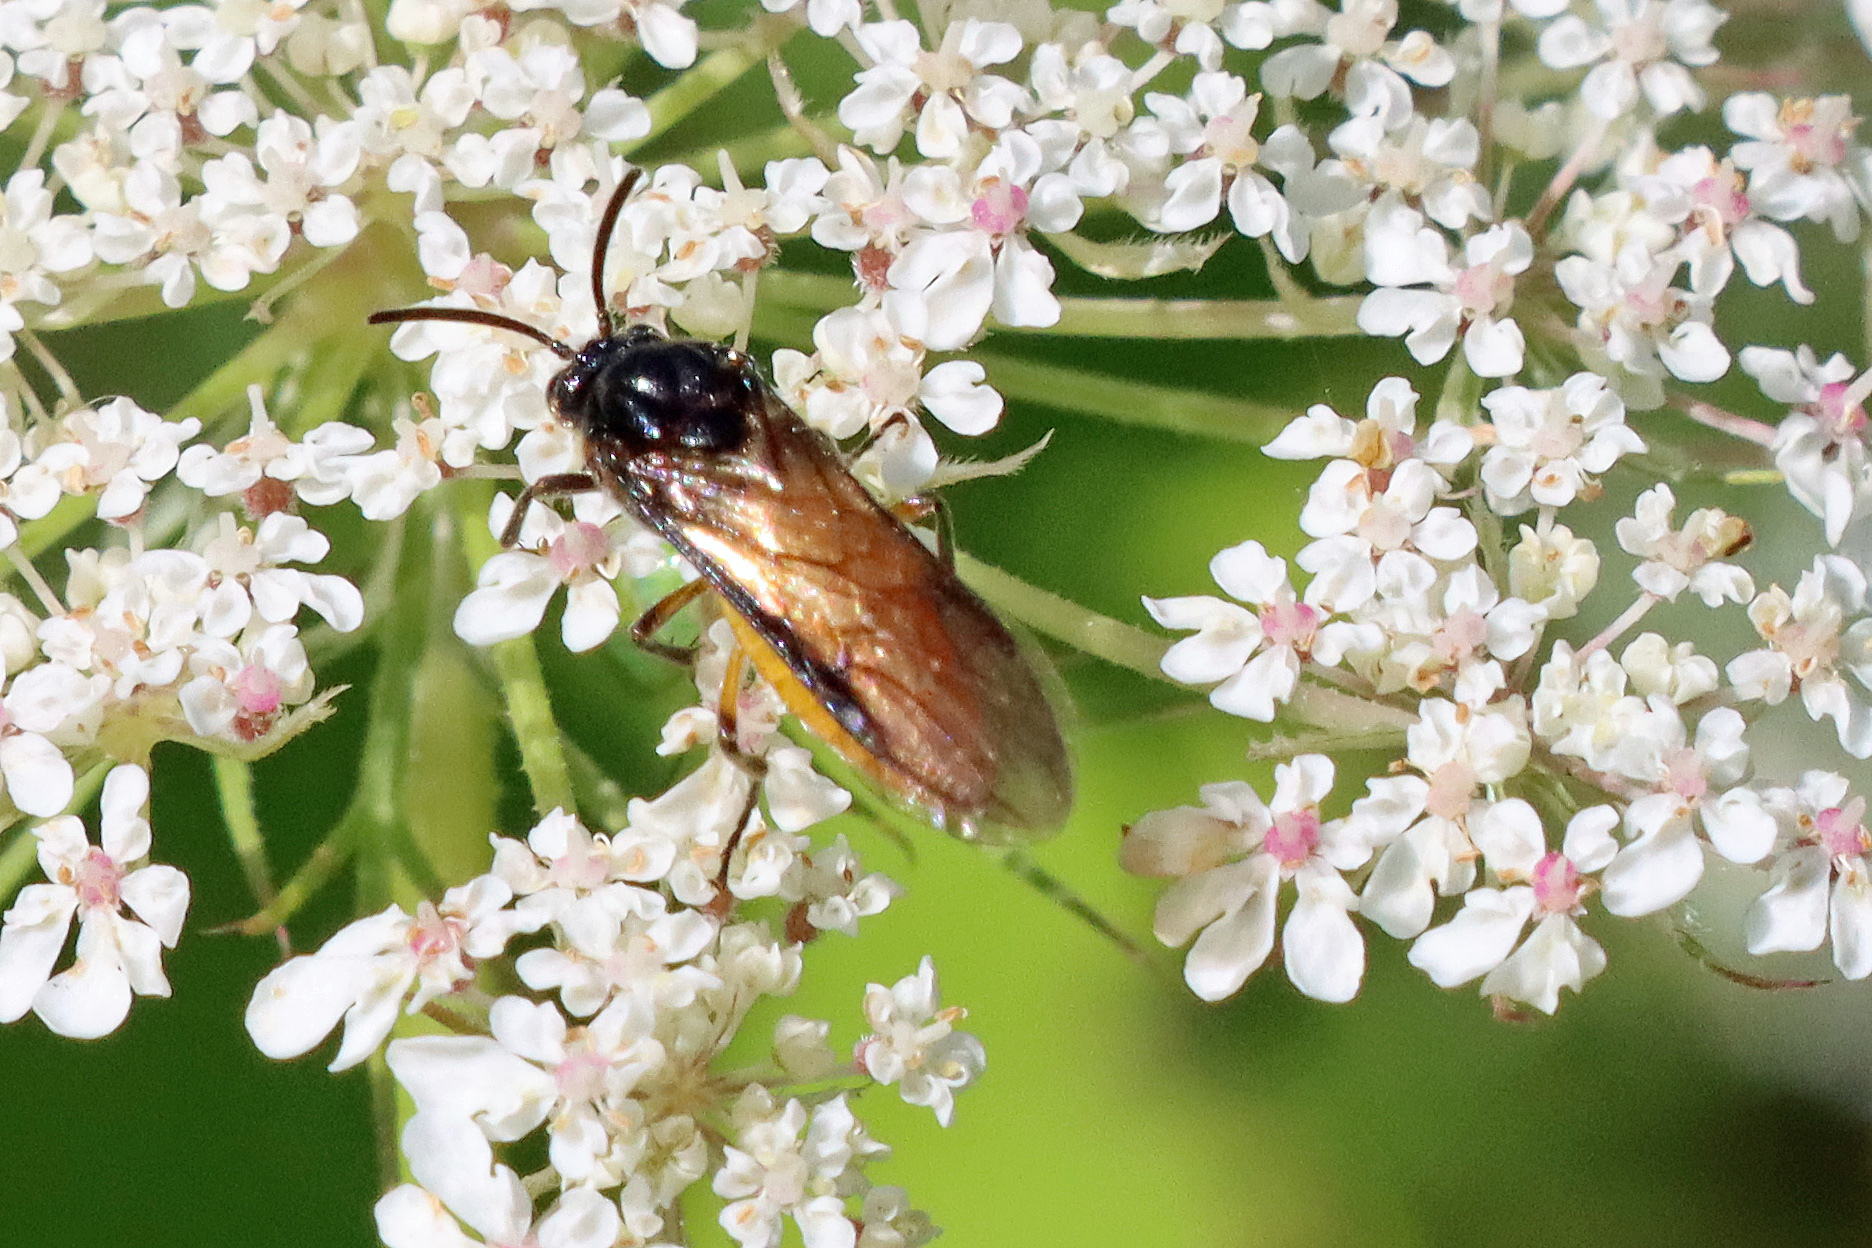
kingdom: Animalia
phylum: Arthropoda
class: Insecta
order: Hymenoptera
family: Argidae
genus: Arge
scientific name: Arge pagana
